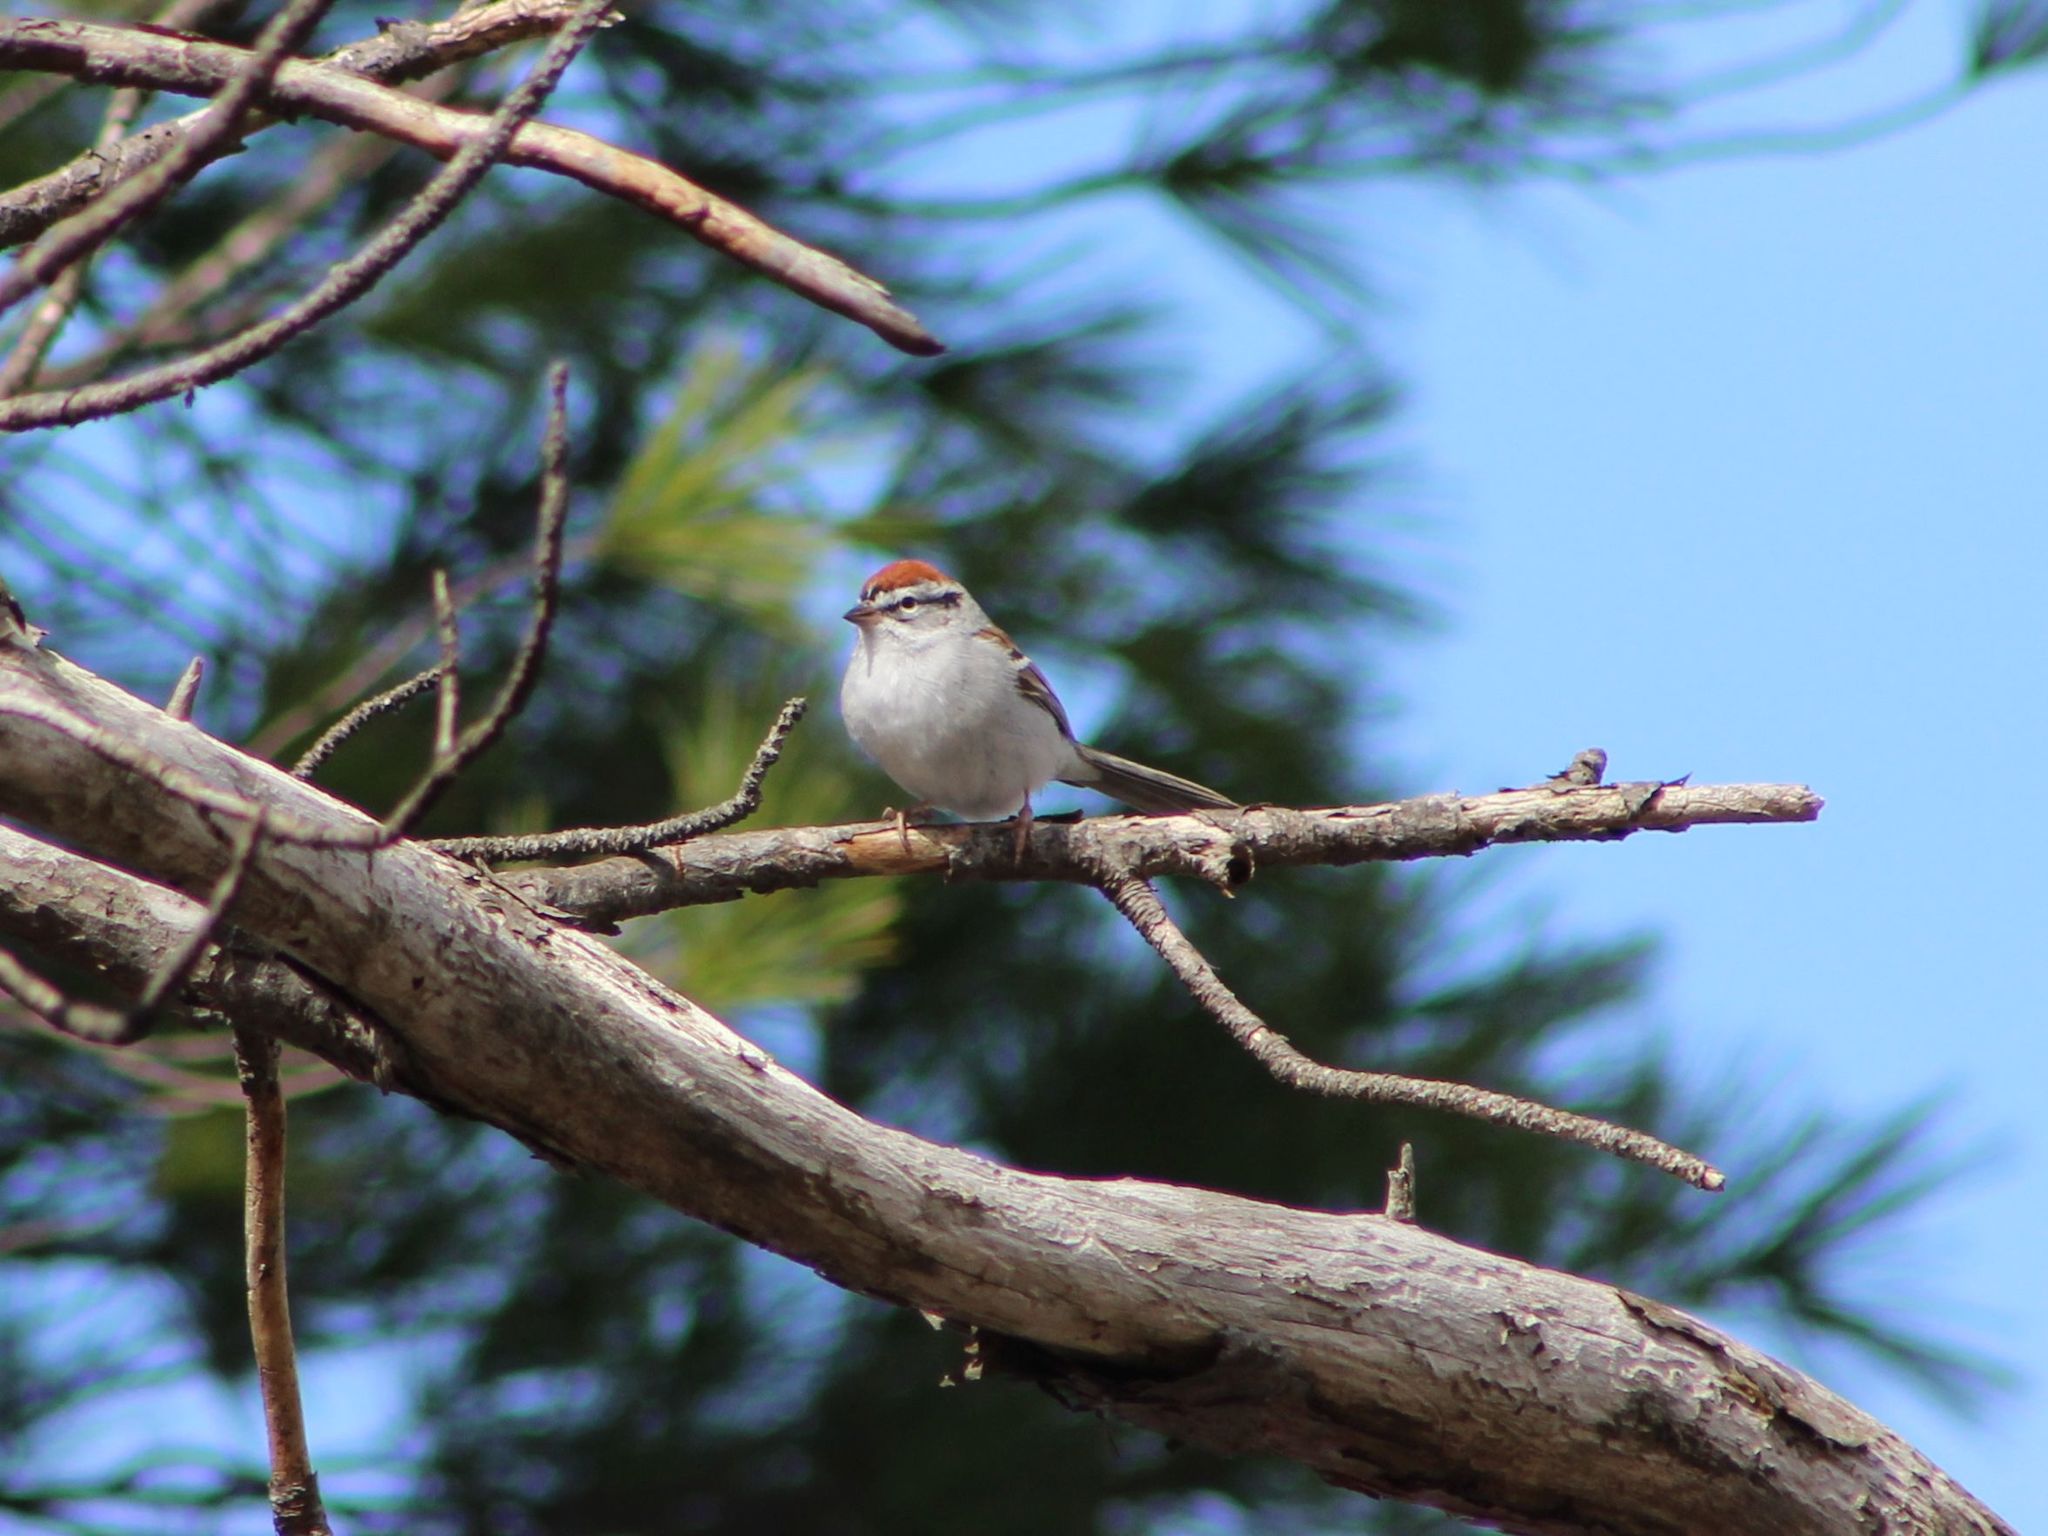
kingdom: Animalia
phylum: Chordata
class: Aves
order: Passeriformes
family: Passerellidae
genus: Spizella
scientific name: Spizella passerina
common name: Chipping sparrow
